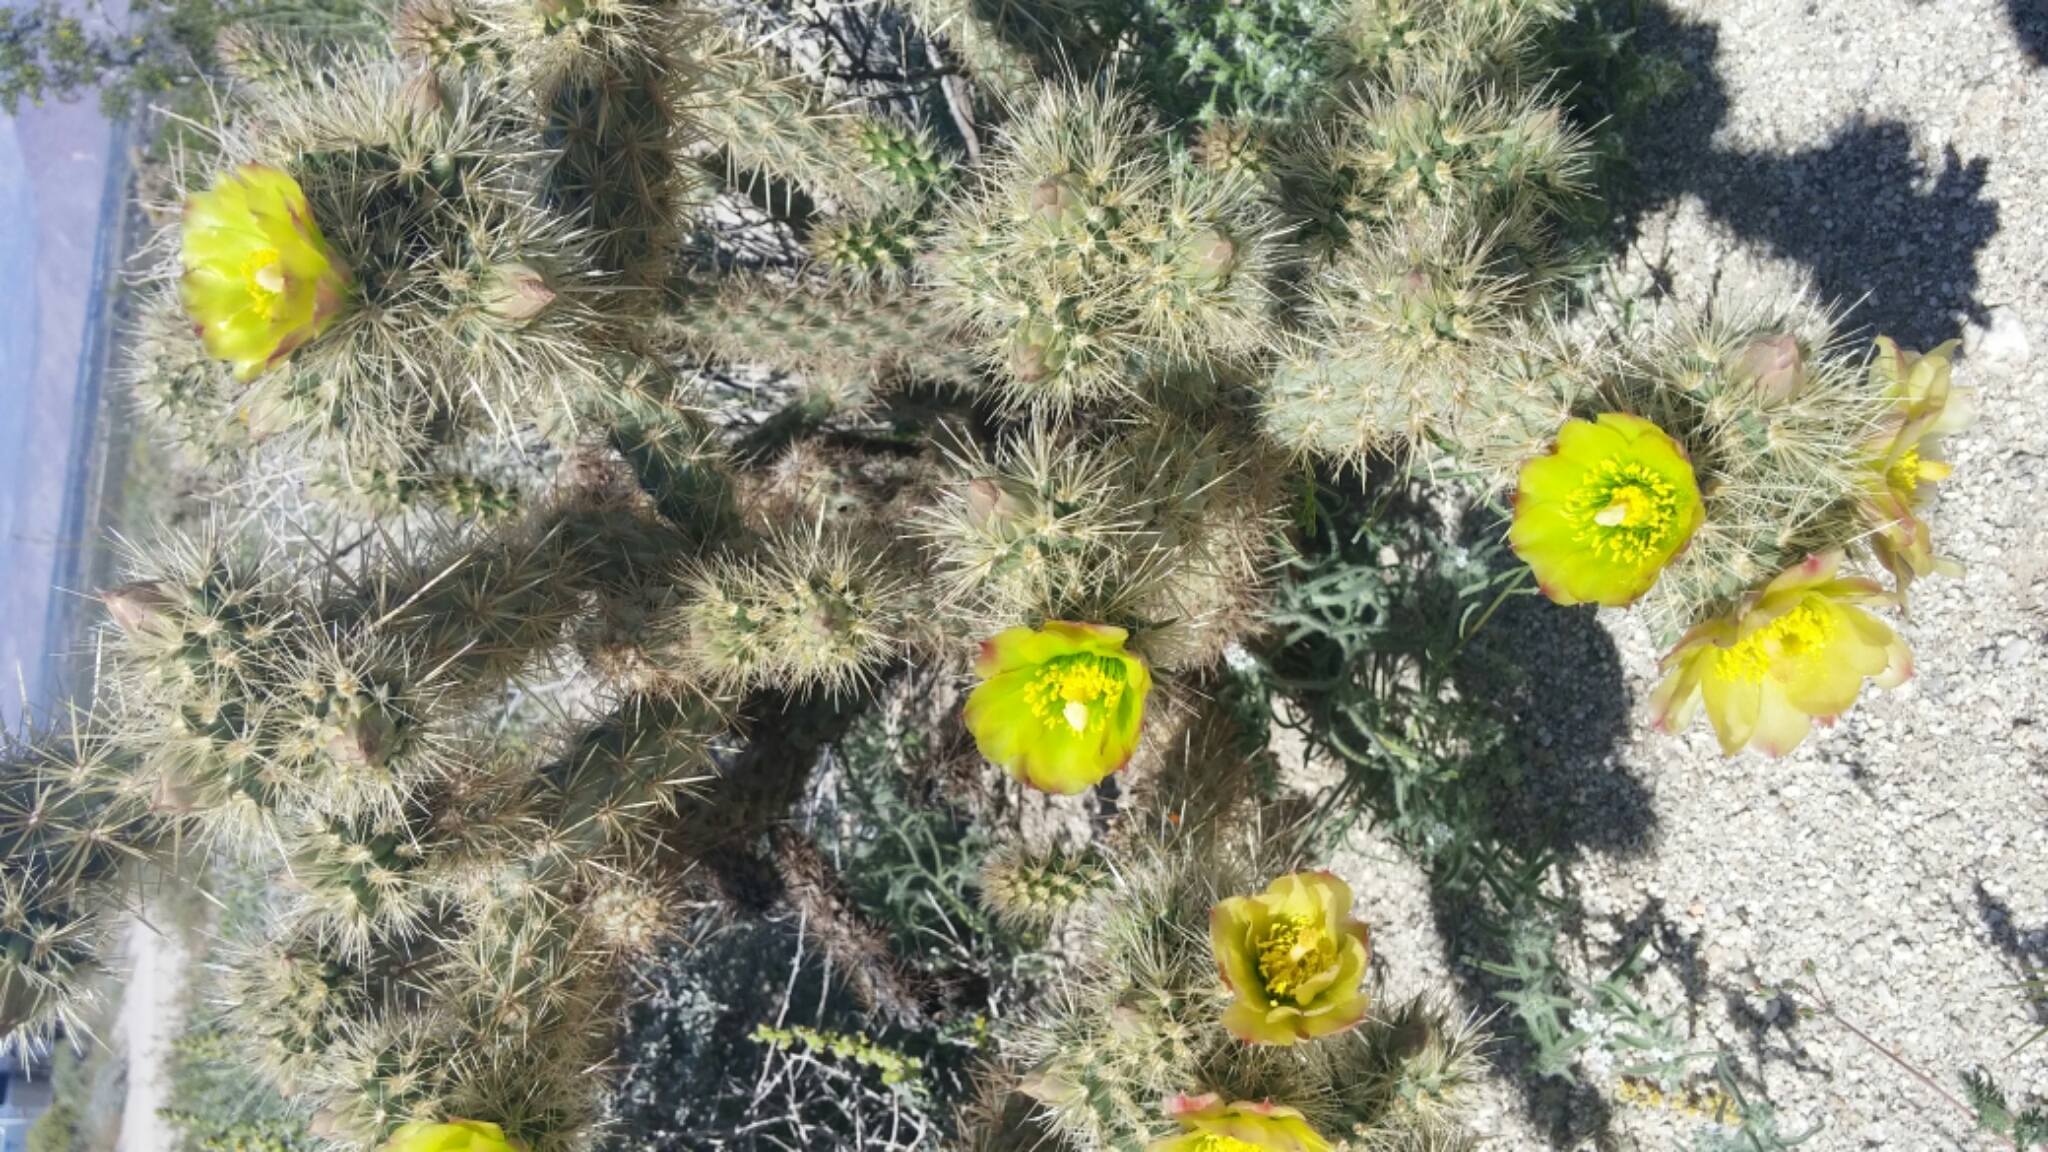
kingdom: Plantae
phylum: Tracheophyta
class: Magnoliopsida
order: Caryophyllales
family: Cactaceae
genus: Cylindropuntia
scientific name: Cylindropuntia ganderi
